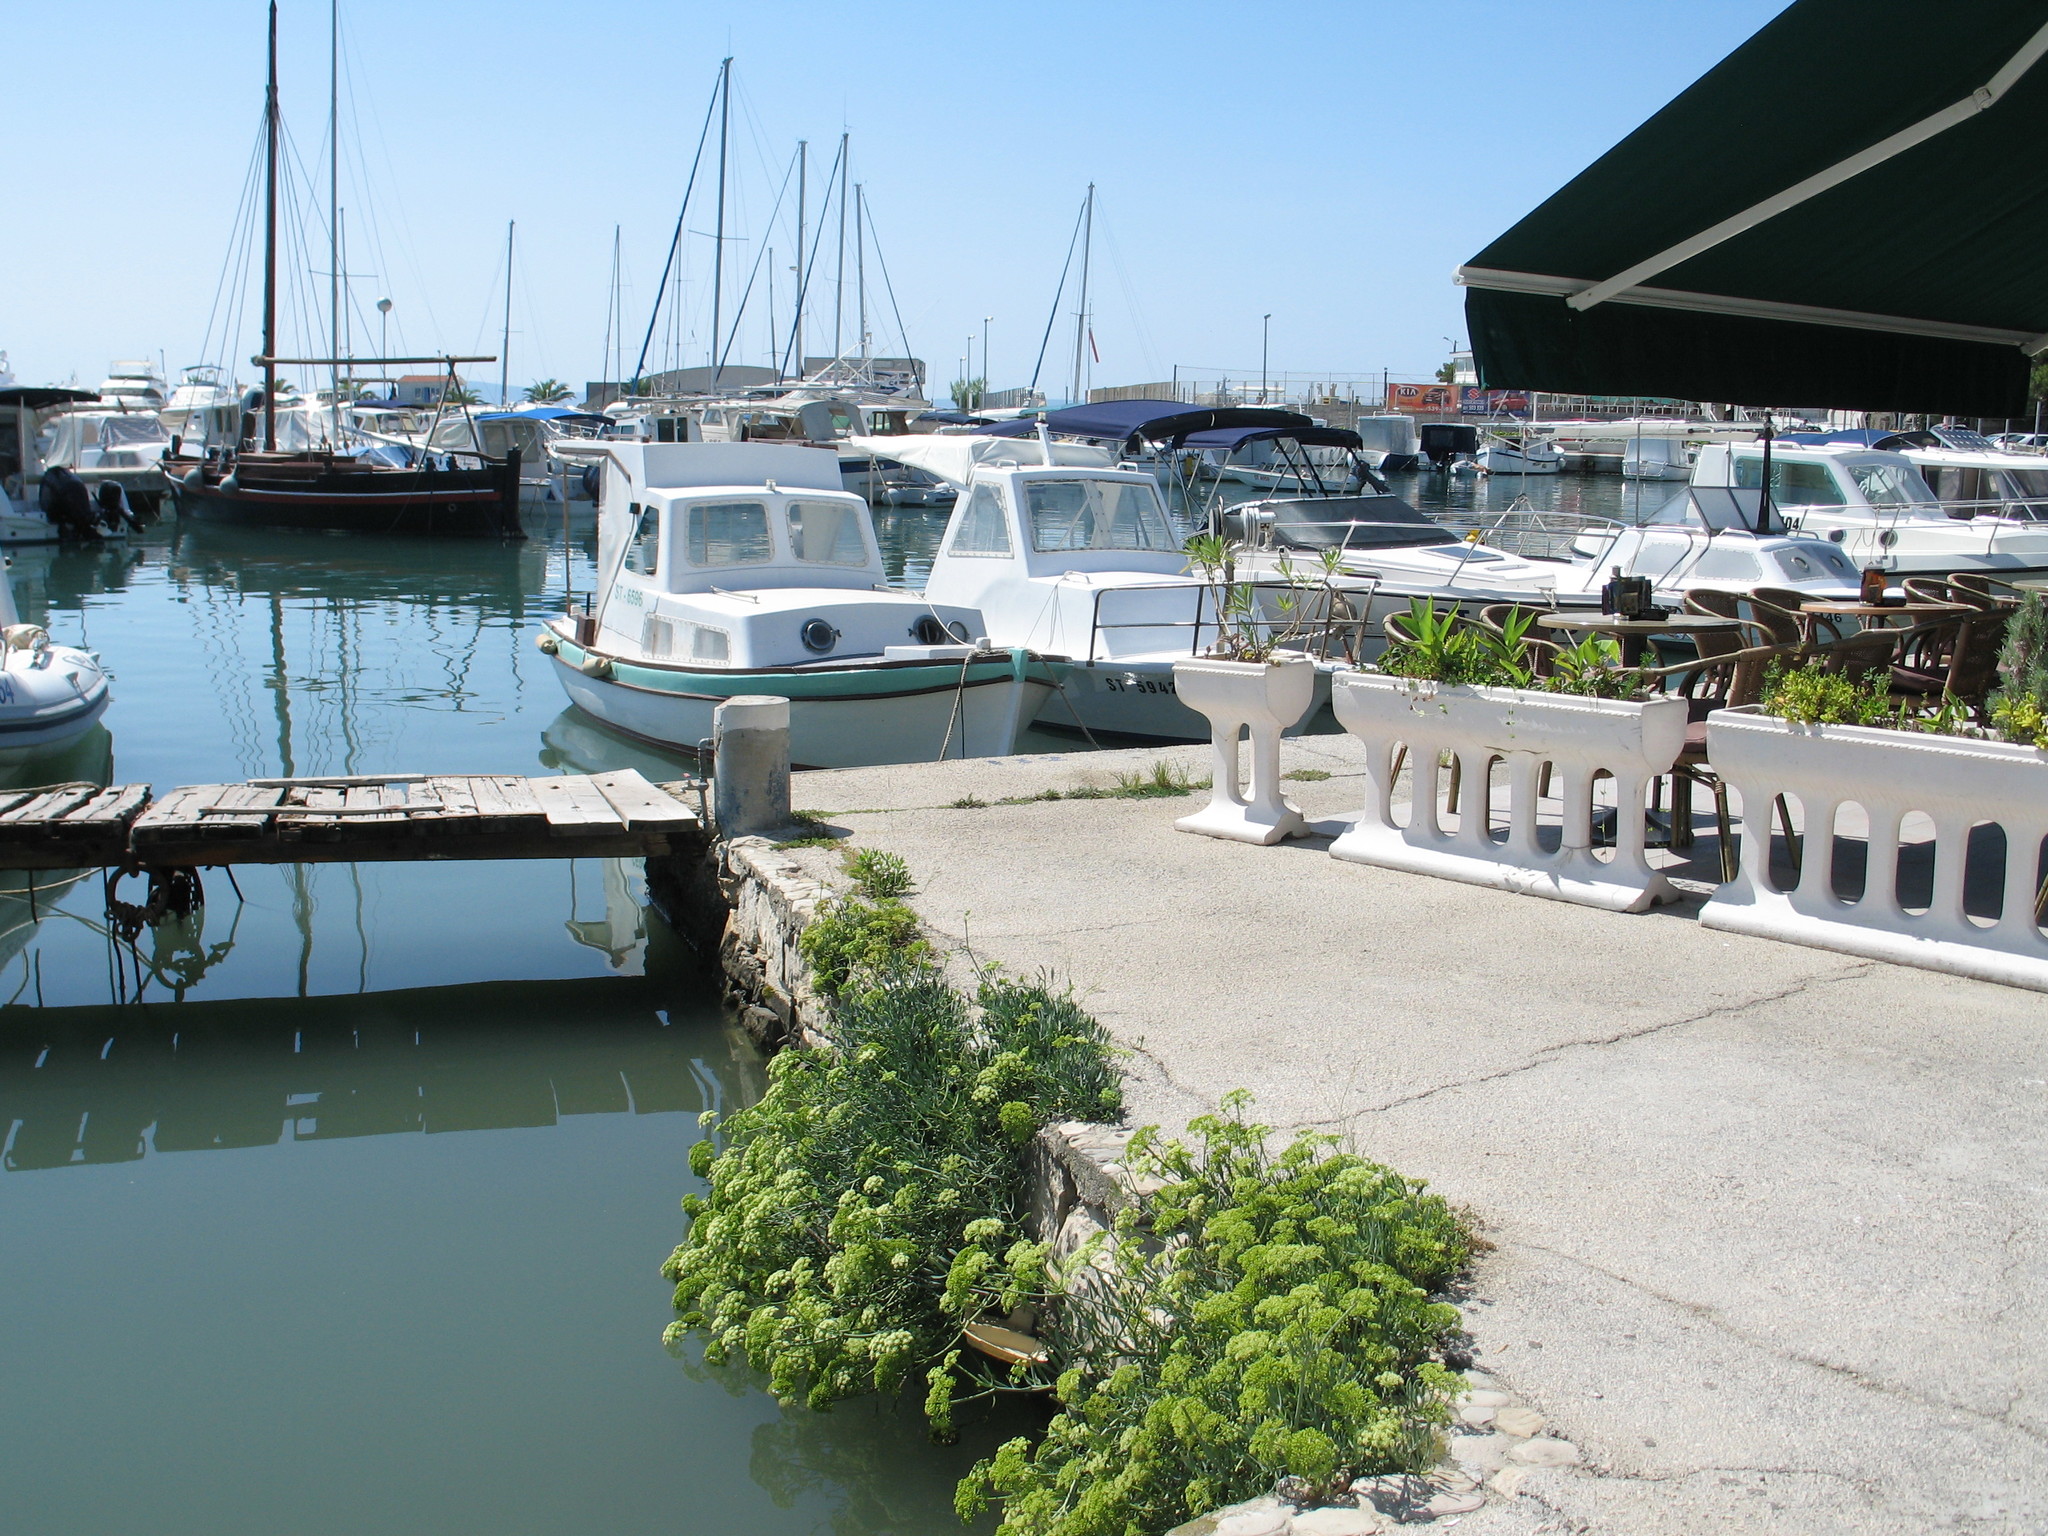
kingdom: Plantae
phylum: Tracheophyta
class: Magnoliopsida
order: Apiales
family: Apiaceae
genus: Crithmum
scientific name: Crithmum maritimum
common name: Rock samphire
